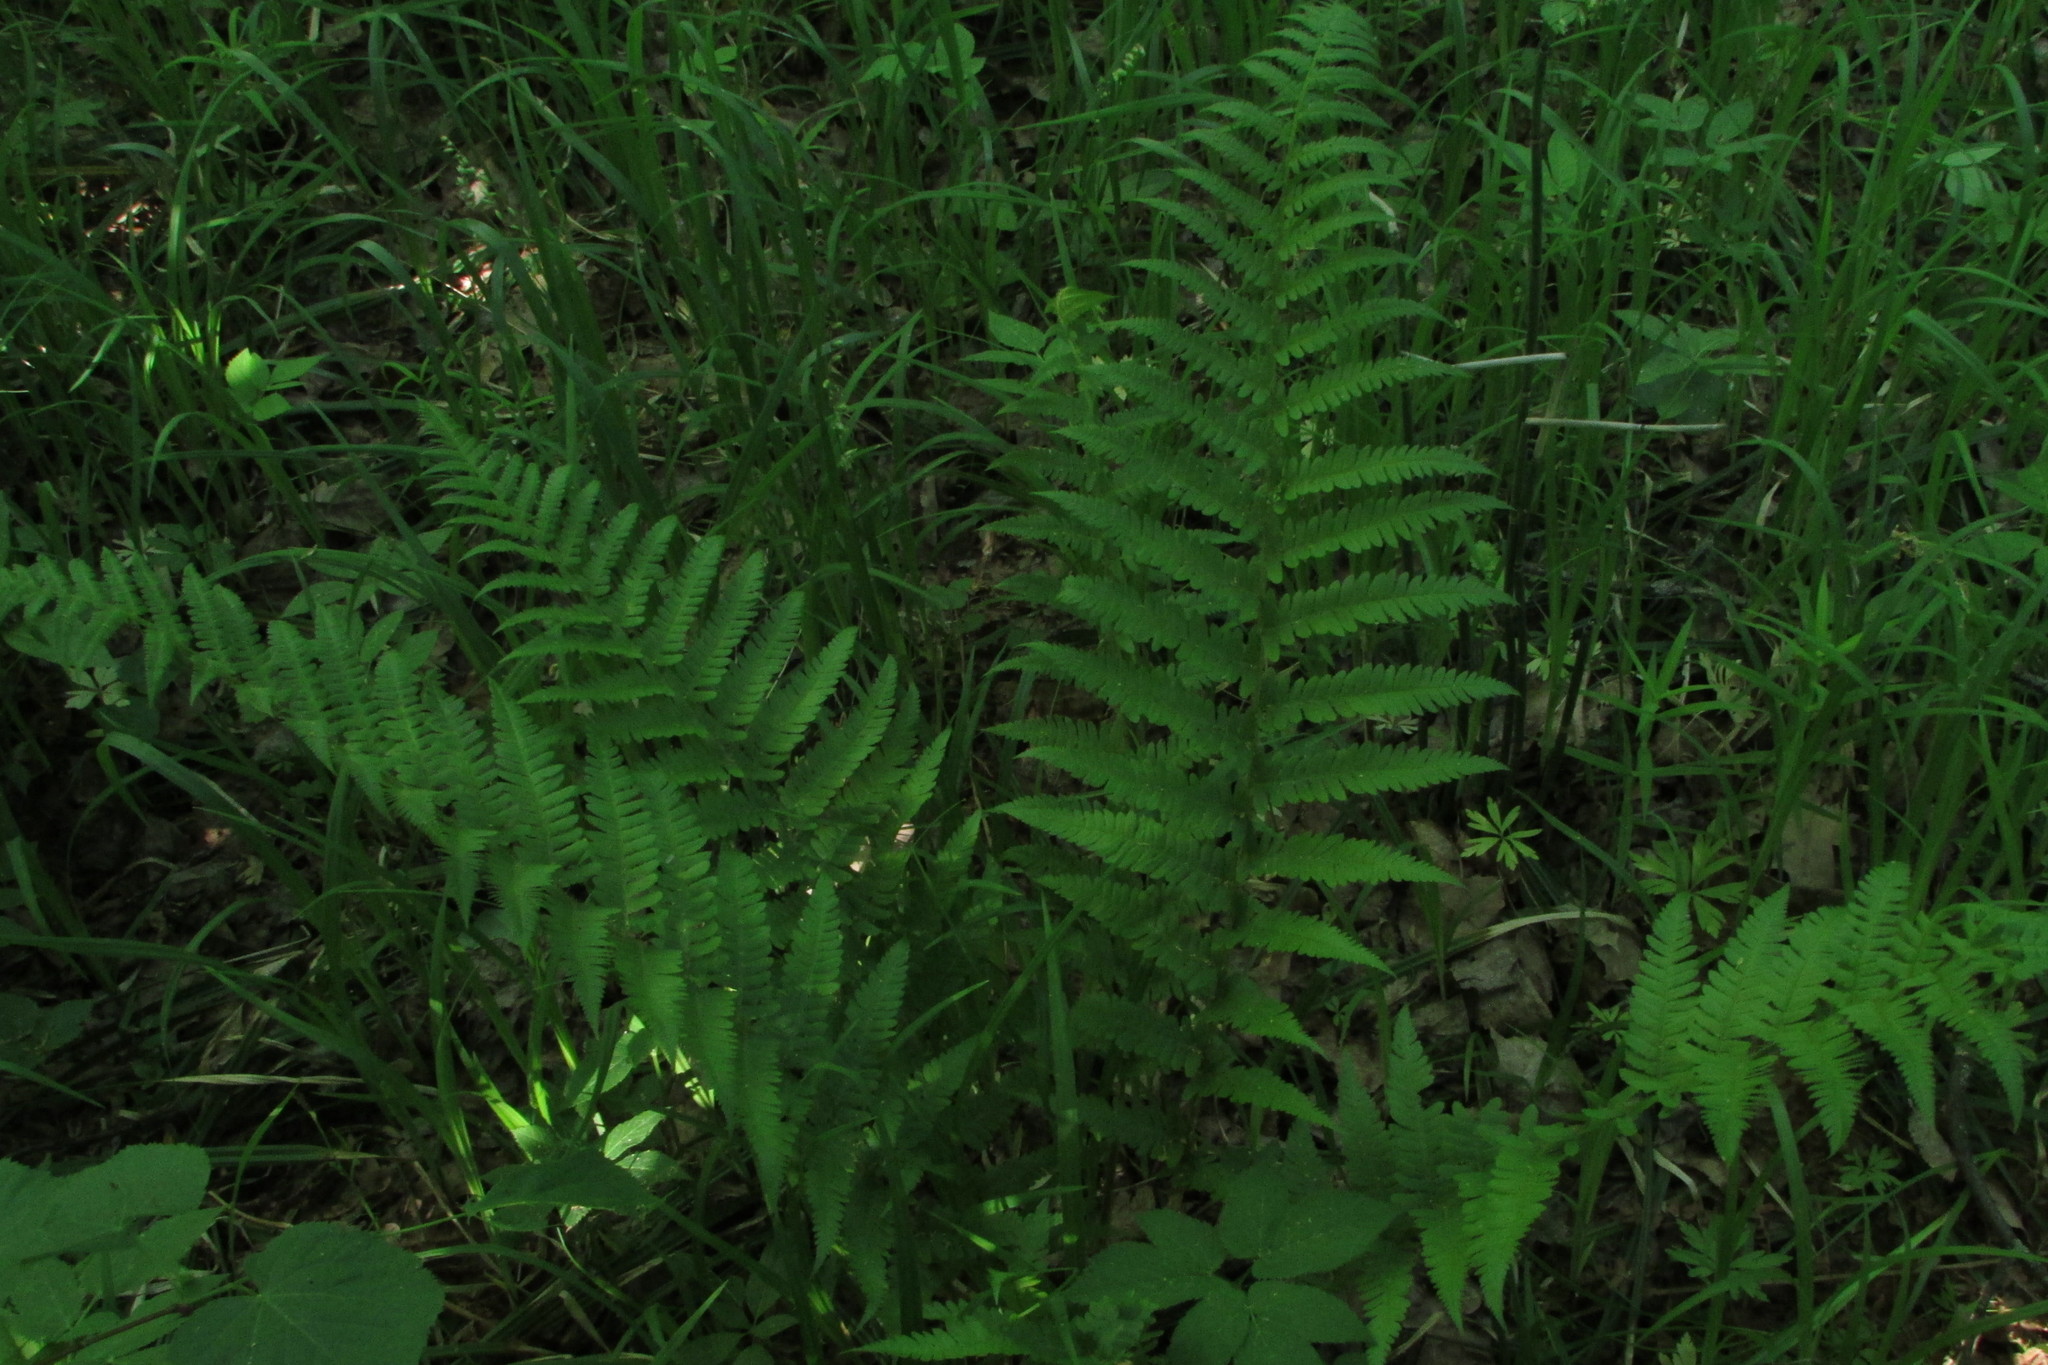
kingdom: Plantae
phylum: Tracheophyta
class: Polypodiopsida
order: Polypodiales
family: Dryopteridaceae
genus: Dryopteris
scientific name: Dryopteris filix-mas
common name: Male fern
